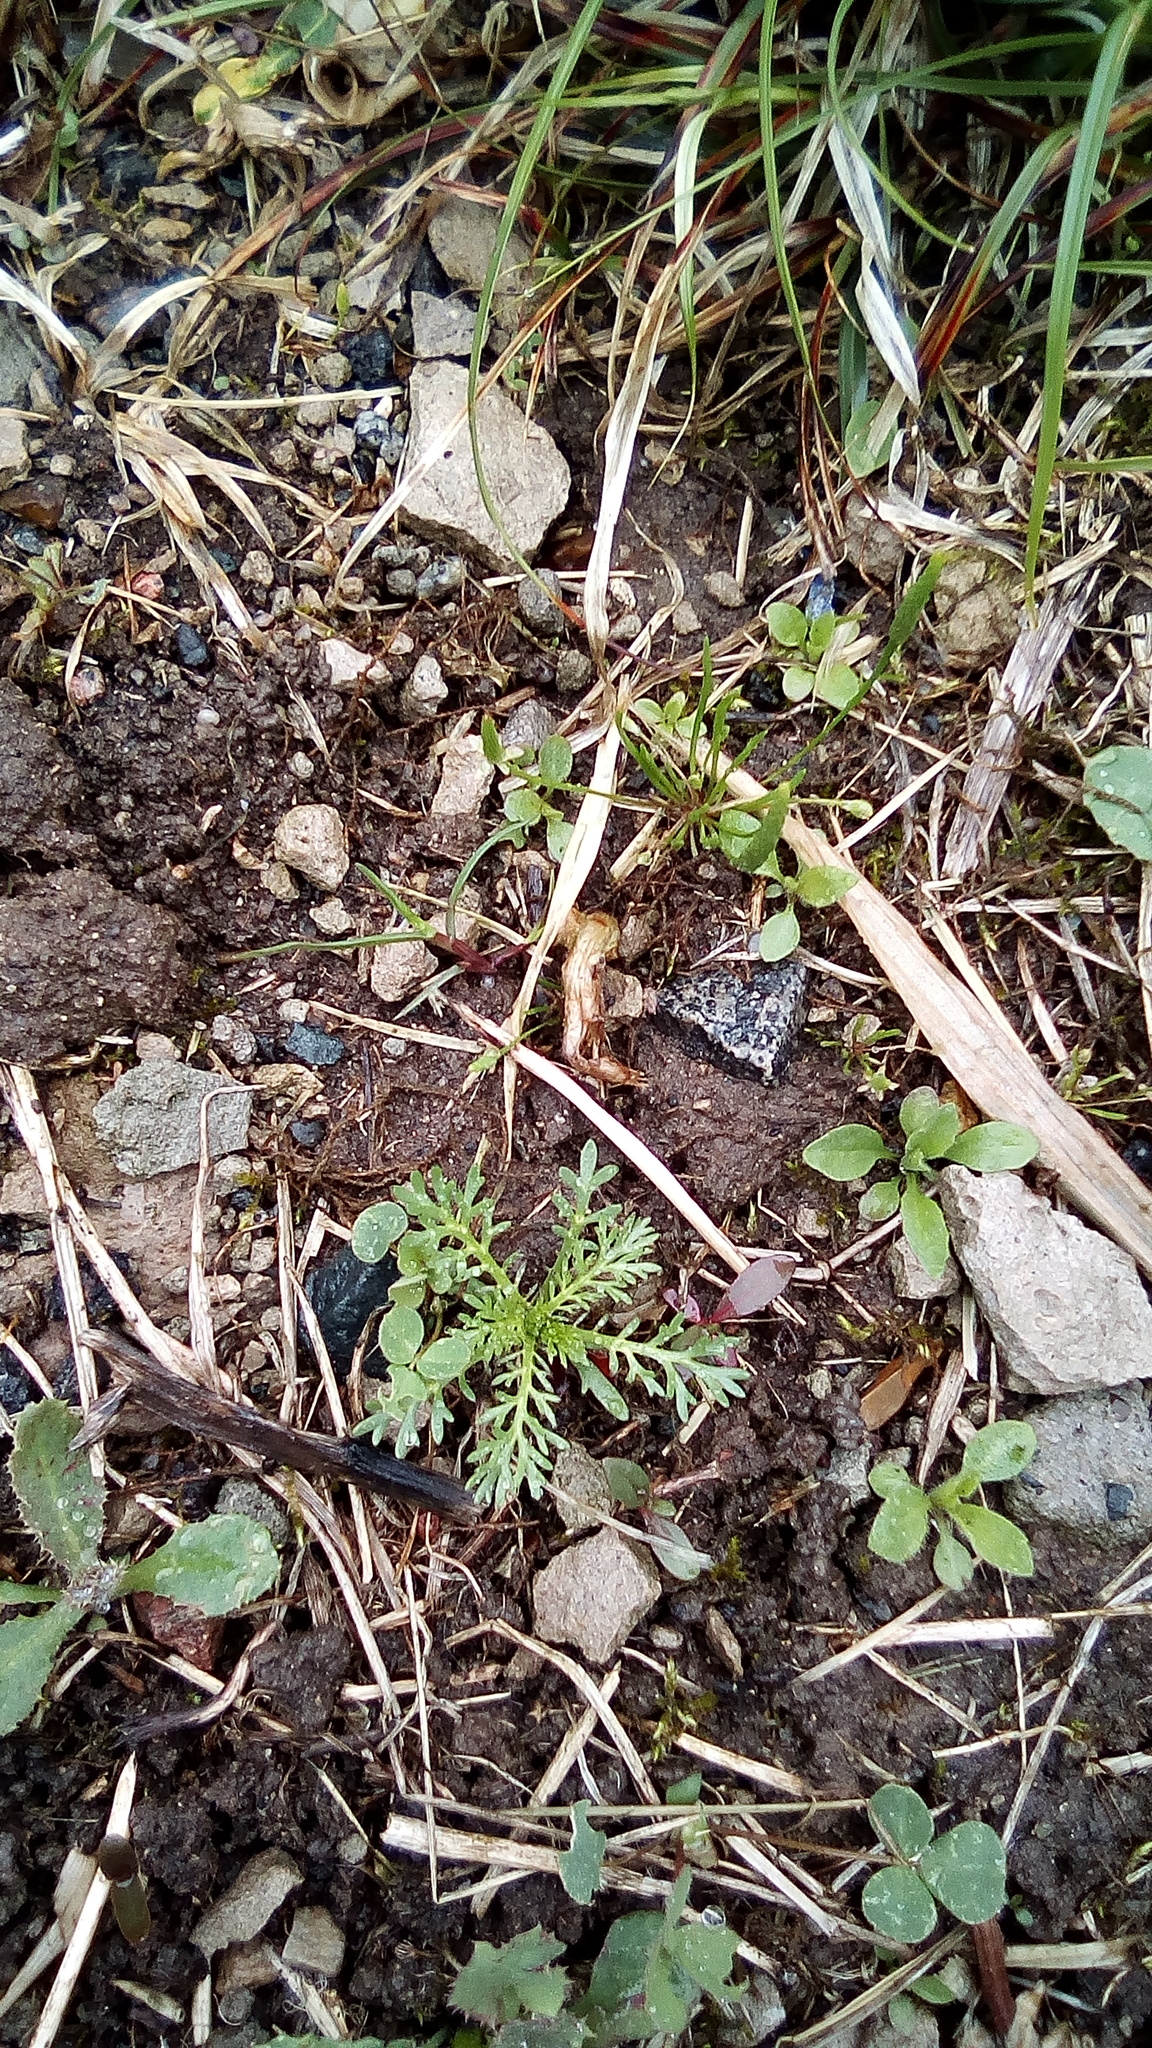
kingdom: Plantae
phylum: Tracheophyta
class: Magnoliopsida
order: Asterales
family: Asteraceae
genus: Matricaria
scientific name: Matricaria discoidea
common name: Disc mayweed
